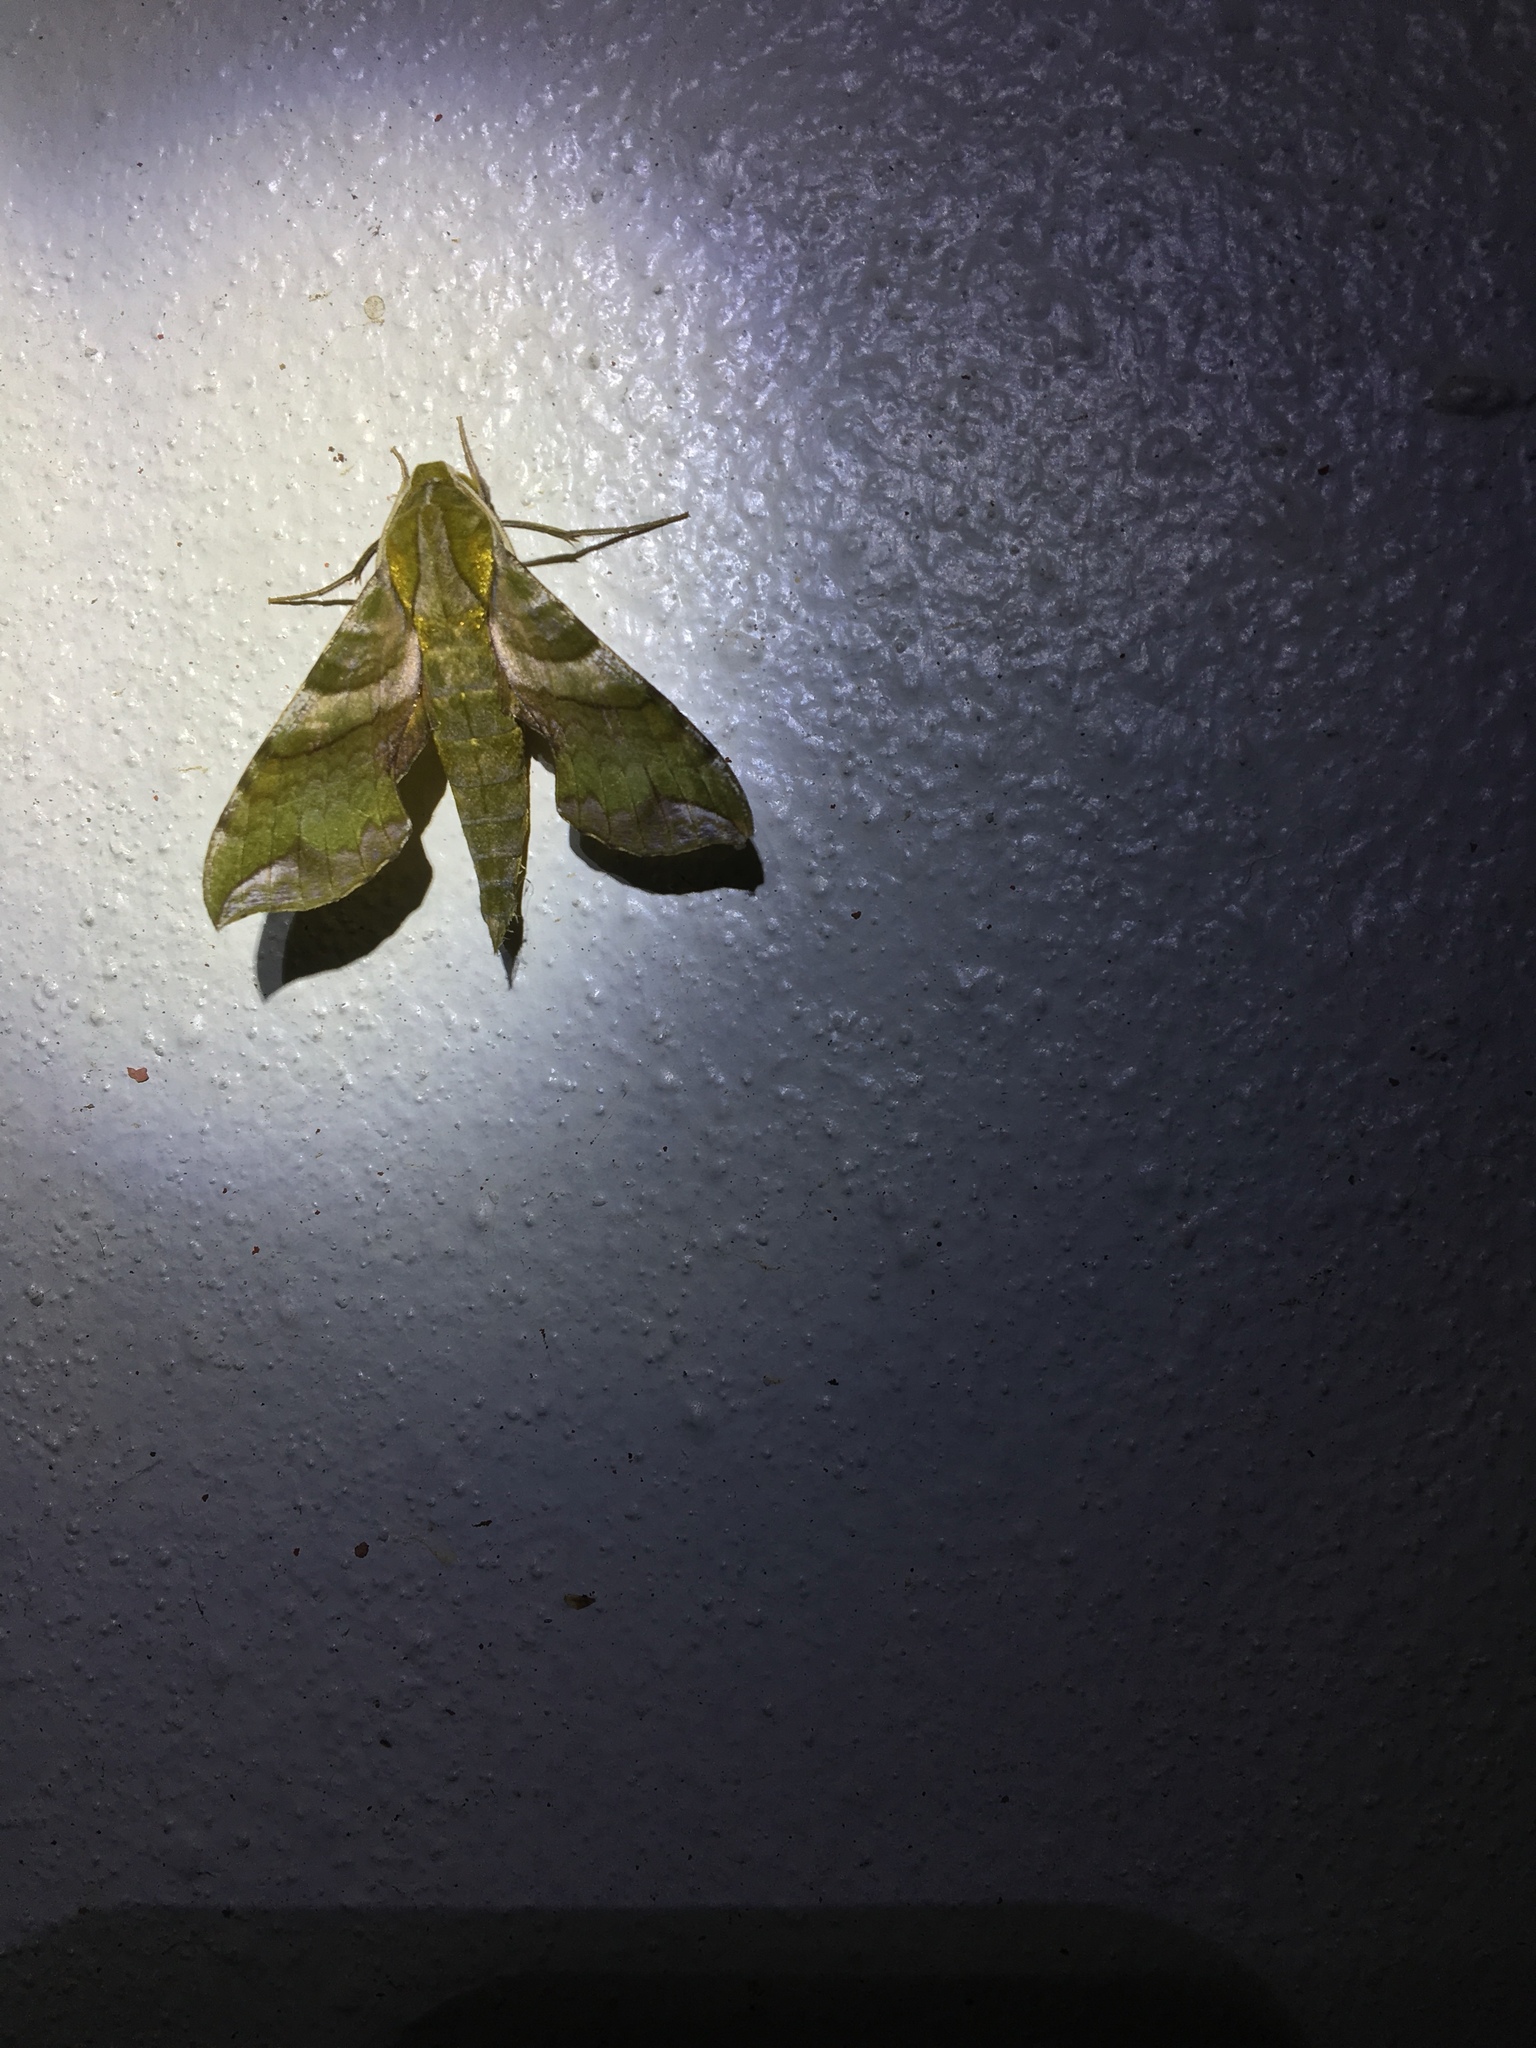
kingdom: Animalia
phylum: Arthropoda
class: Insecta
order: Lepidoptera
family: Sphingidae
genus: Xylophanes
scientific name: Xylophanes pluto
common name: Pluto sphinx
